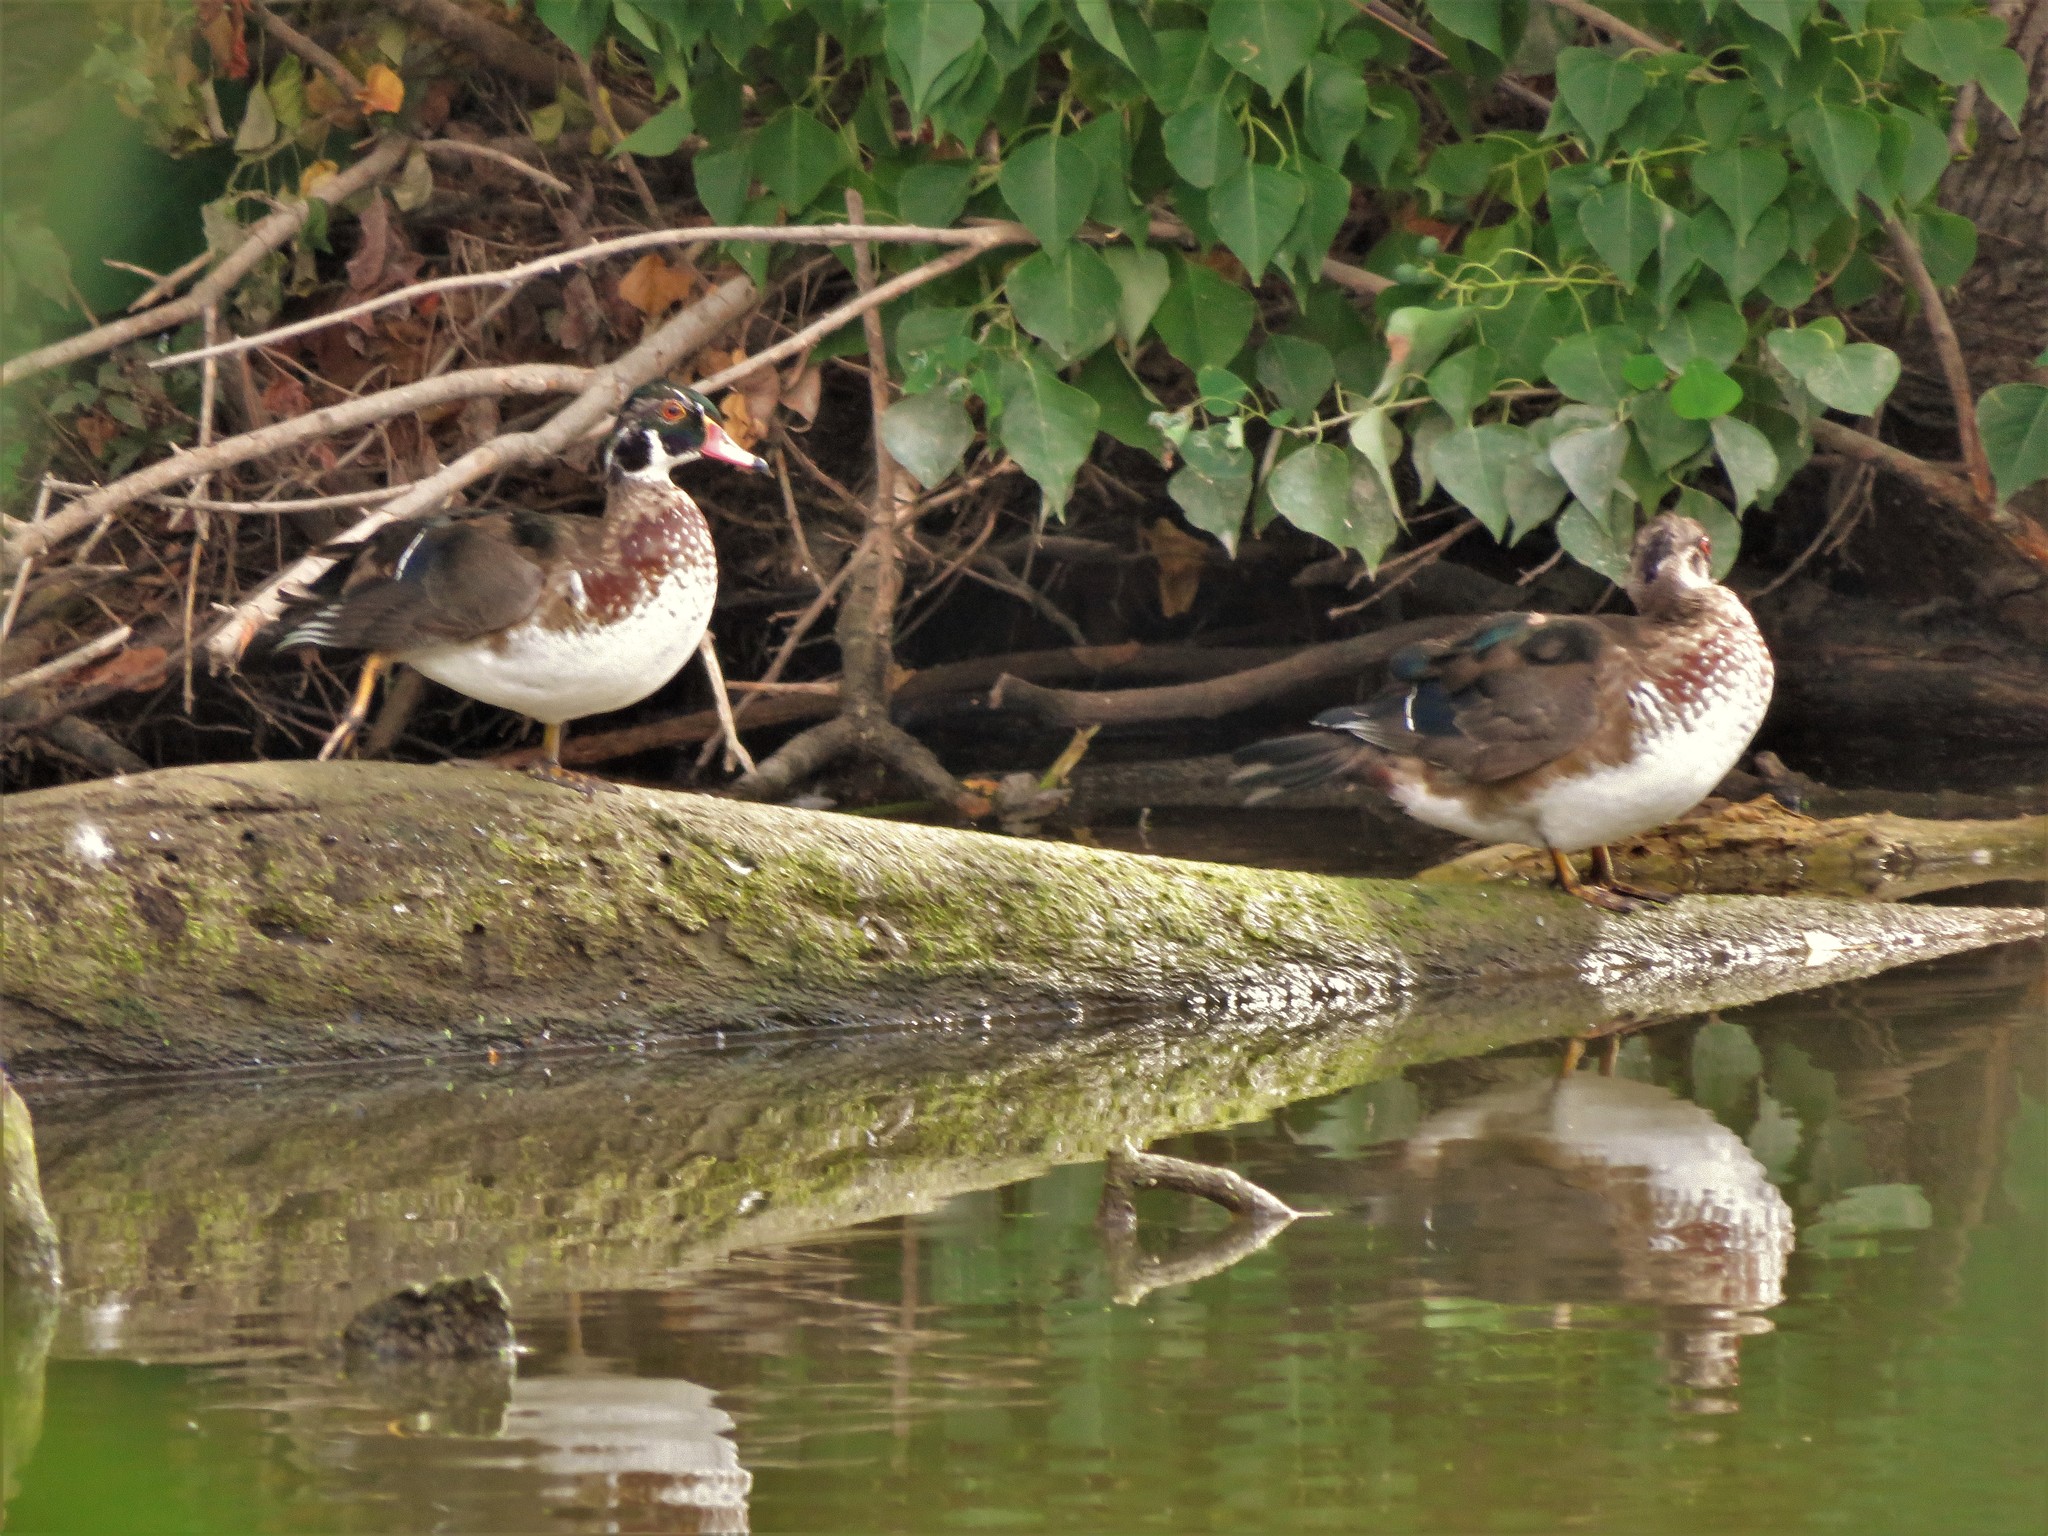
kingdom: Animalia
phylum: Chordata
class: Aves
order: Anseriformes
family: Anatidae
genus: Aix
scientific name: Aix sponsa
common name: Wood duck
